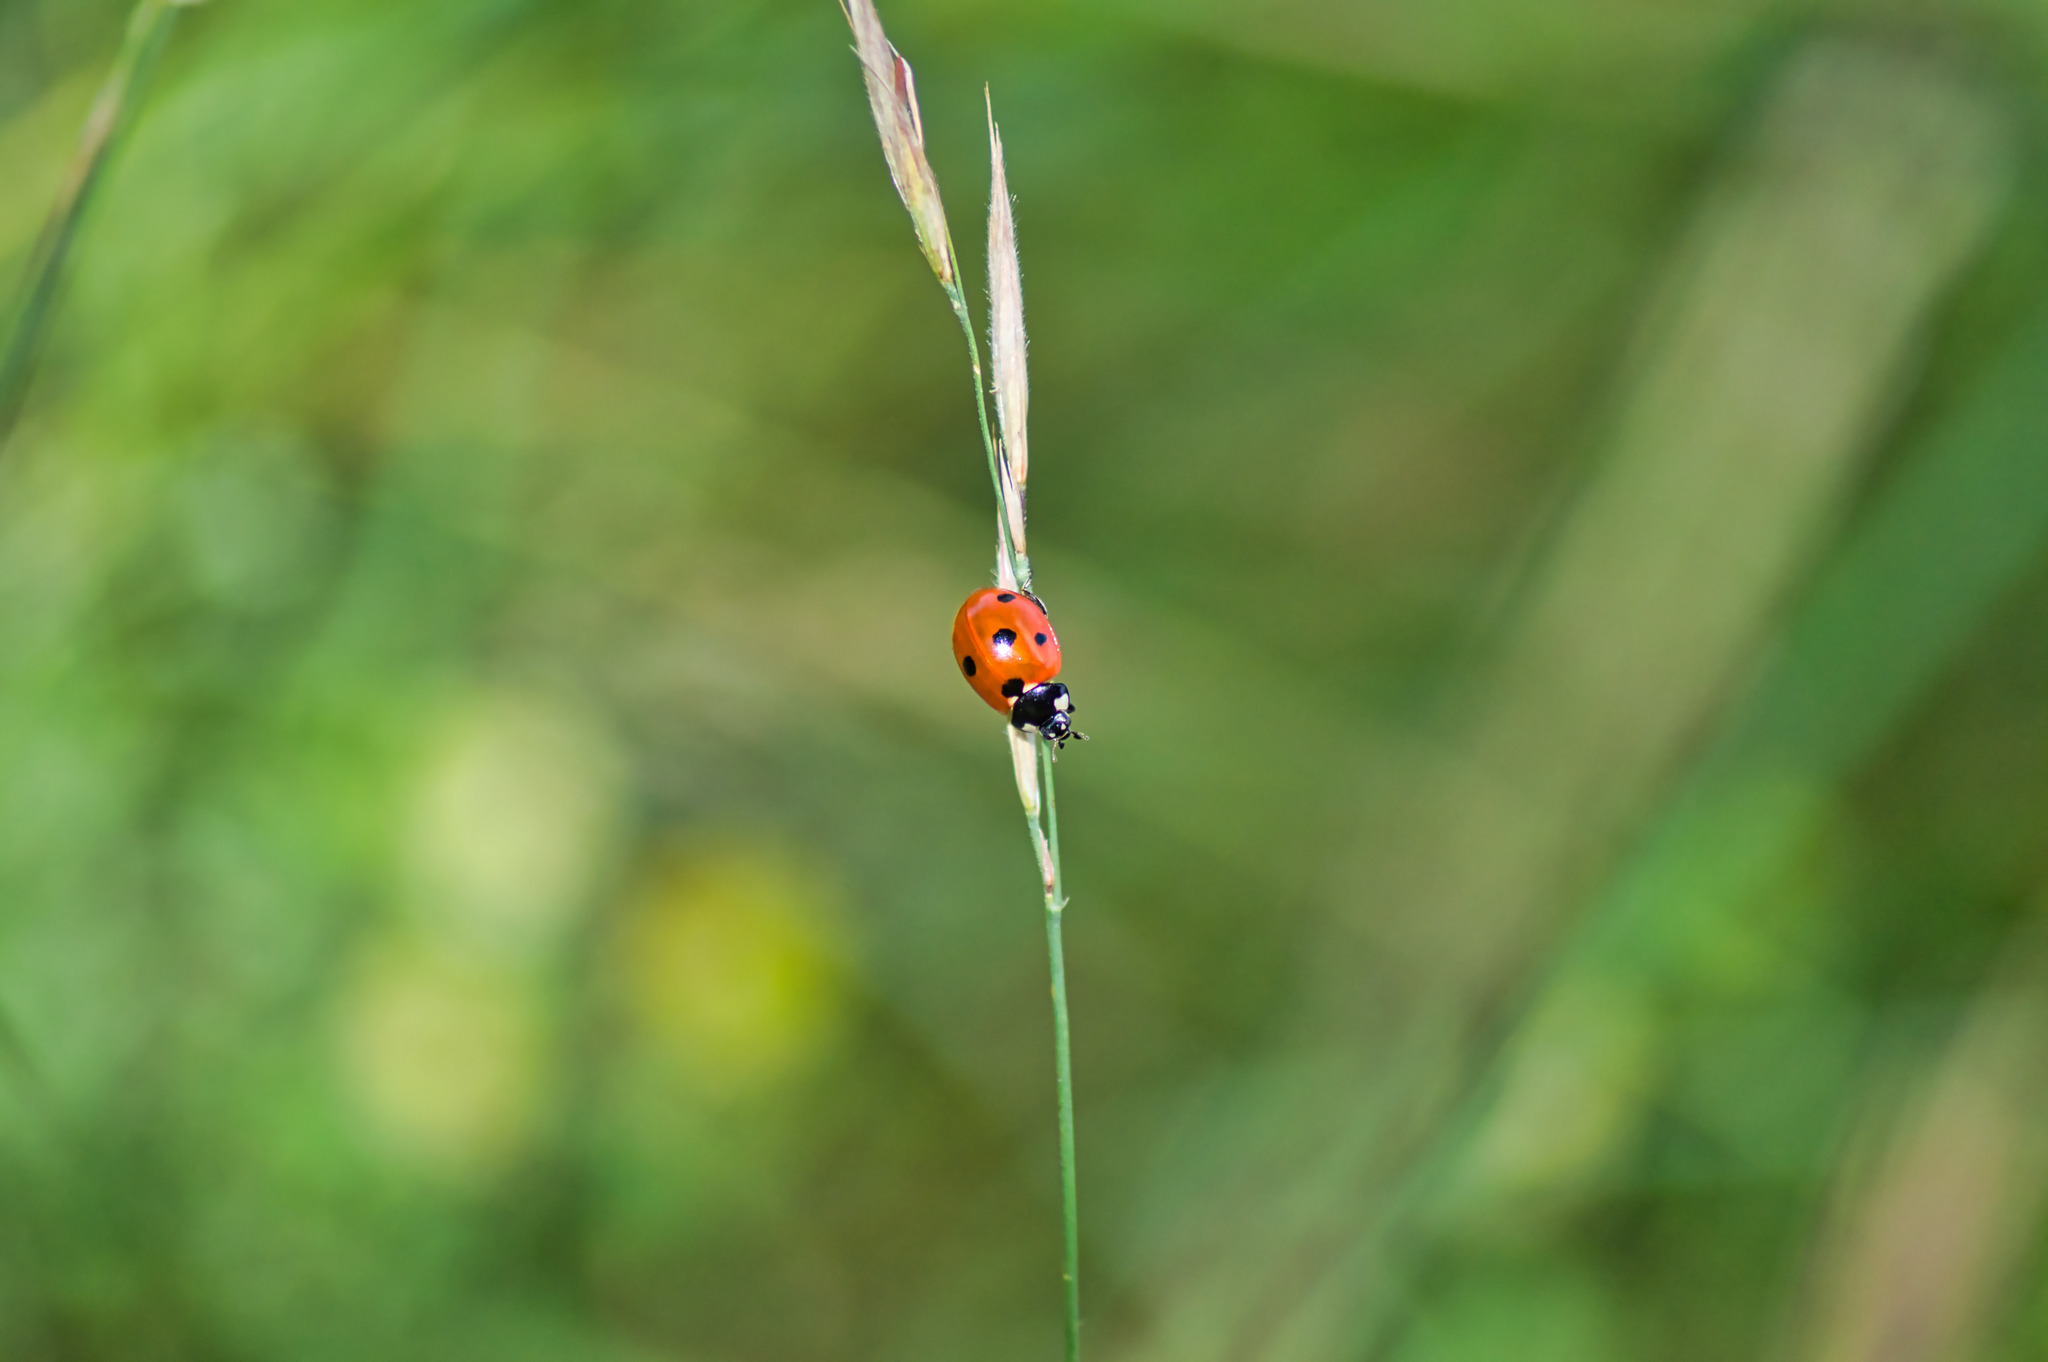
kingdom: Animalia
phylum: Arthropoda
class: Insecta
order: Coleoptera
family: Coccinellidae
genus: Coccinella
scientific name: Coccinella septempunctata
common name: Sevenspotted lady beetle
